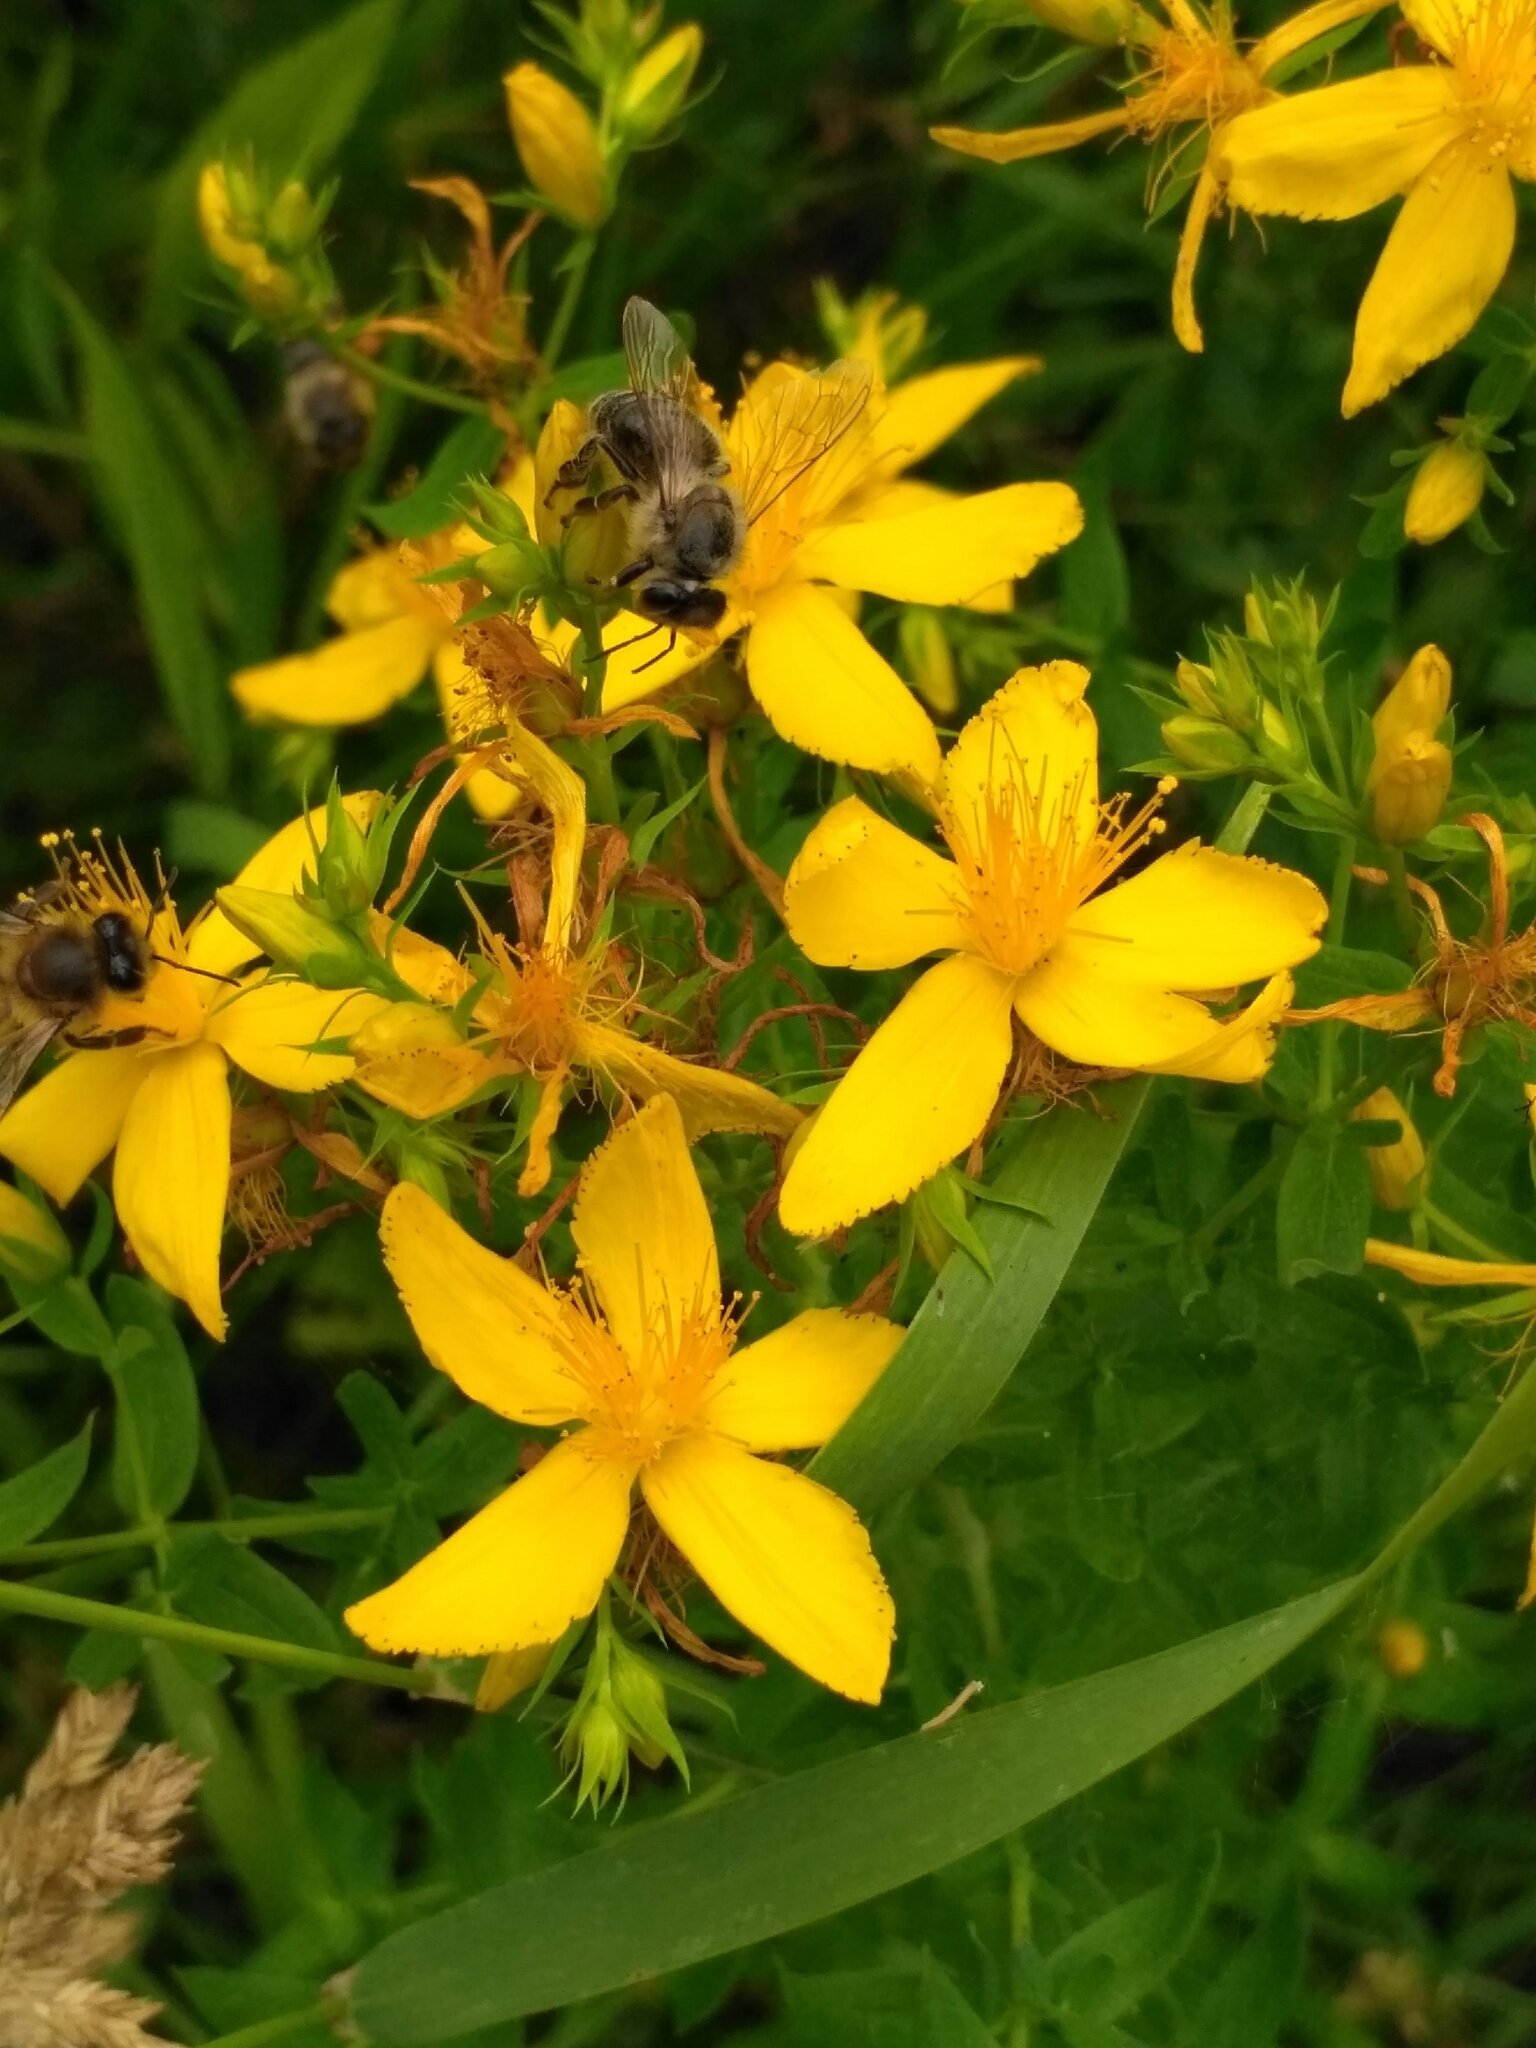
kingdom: Animalia
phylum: Arthropoda
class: Insecta
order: Hymenoptera
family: Apidae
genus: Apis
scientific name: Apis mellifera
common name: Honey bee
